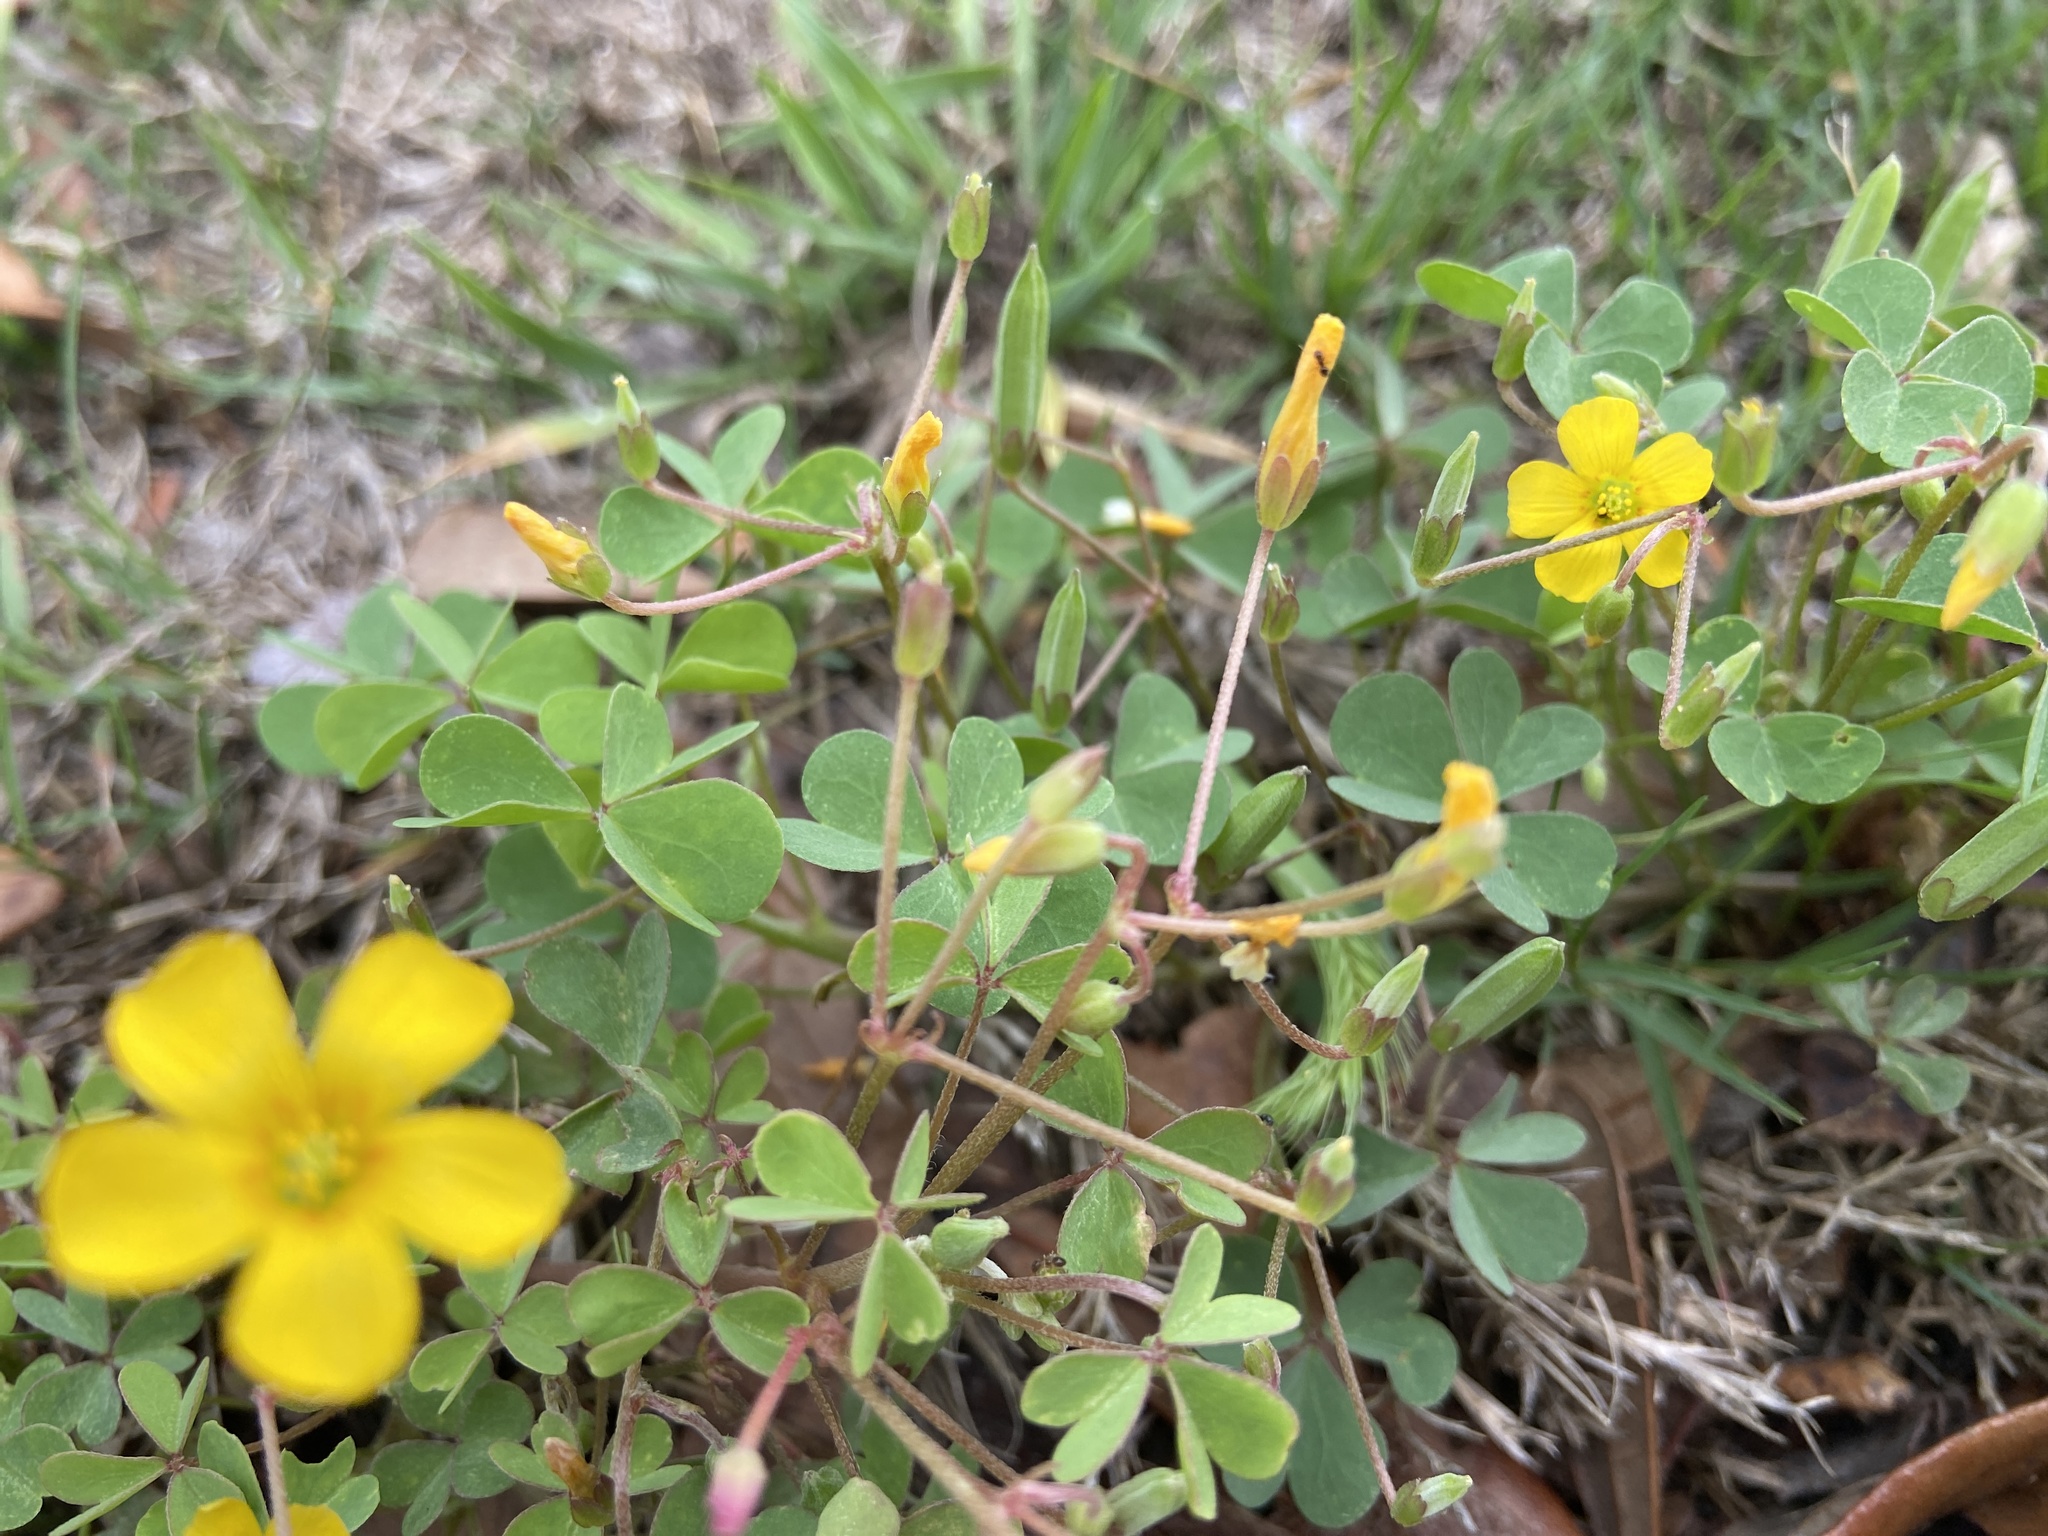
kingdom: Plantae
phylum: Tracheophyta
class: Magnoliopsida
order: Oxalidales
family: Oxalidaceae
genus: Oxalis
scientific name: Oxalis dillenii
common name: Sussex yellow-sorrel
